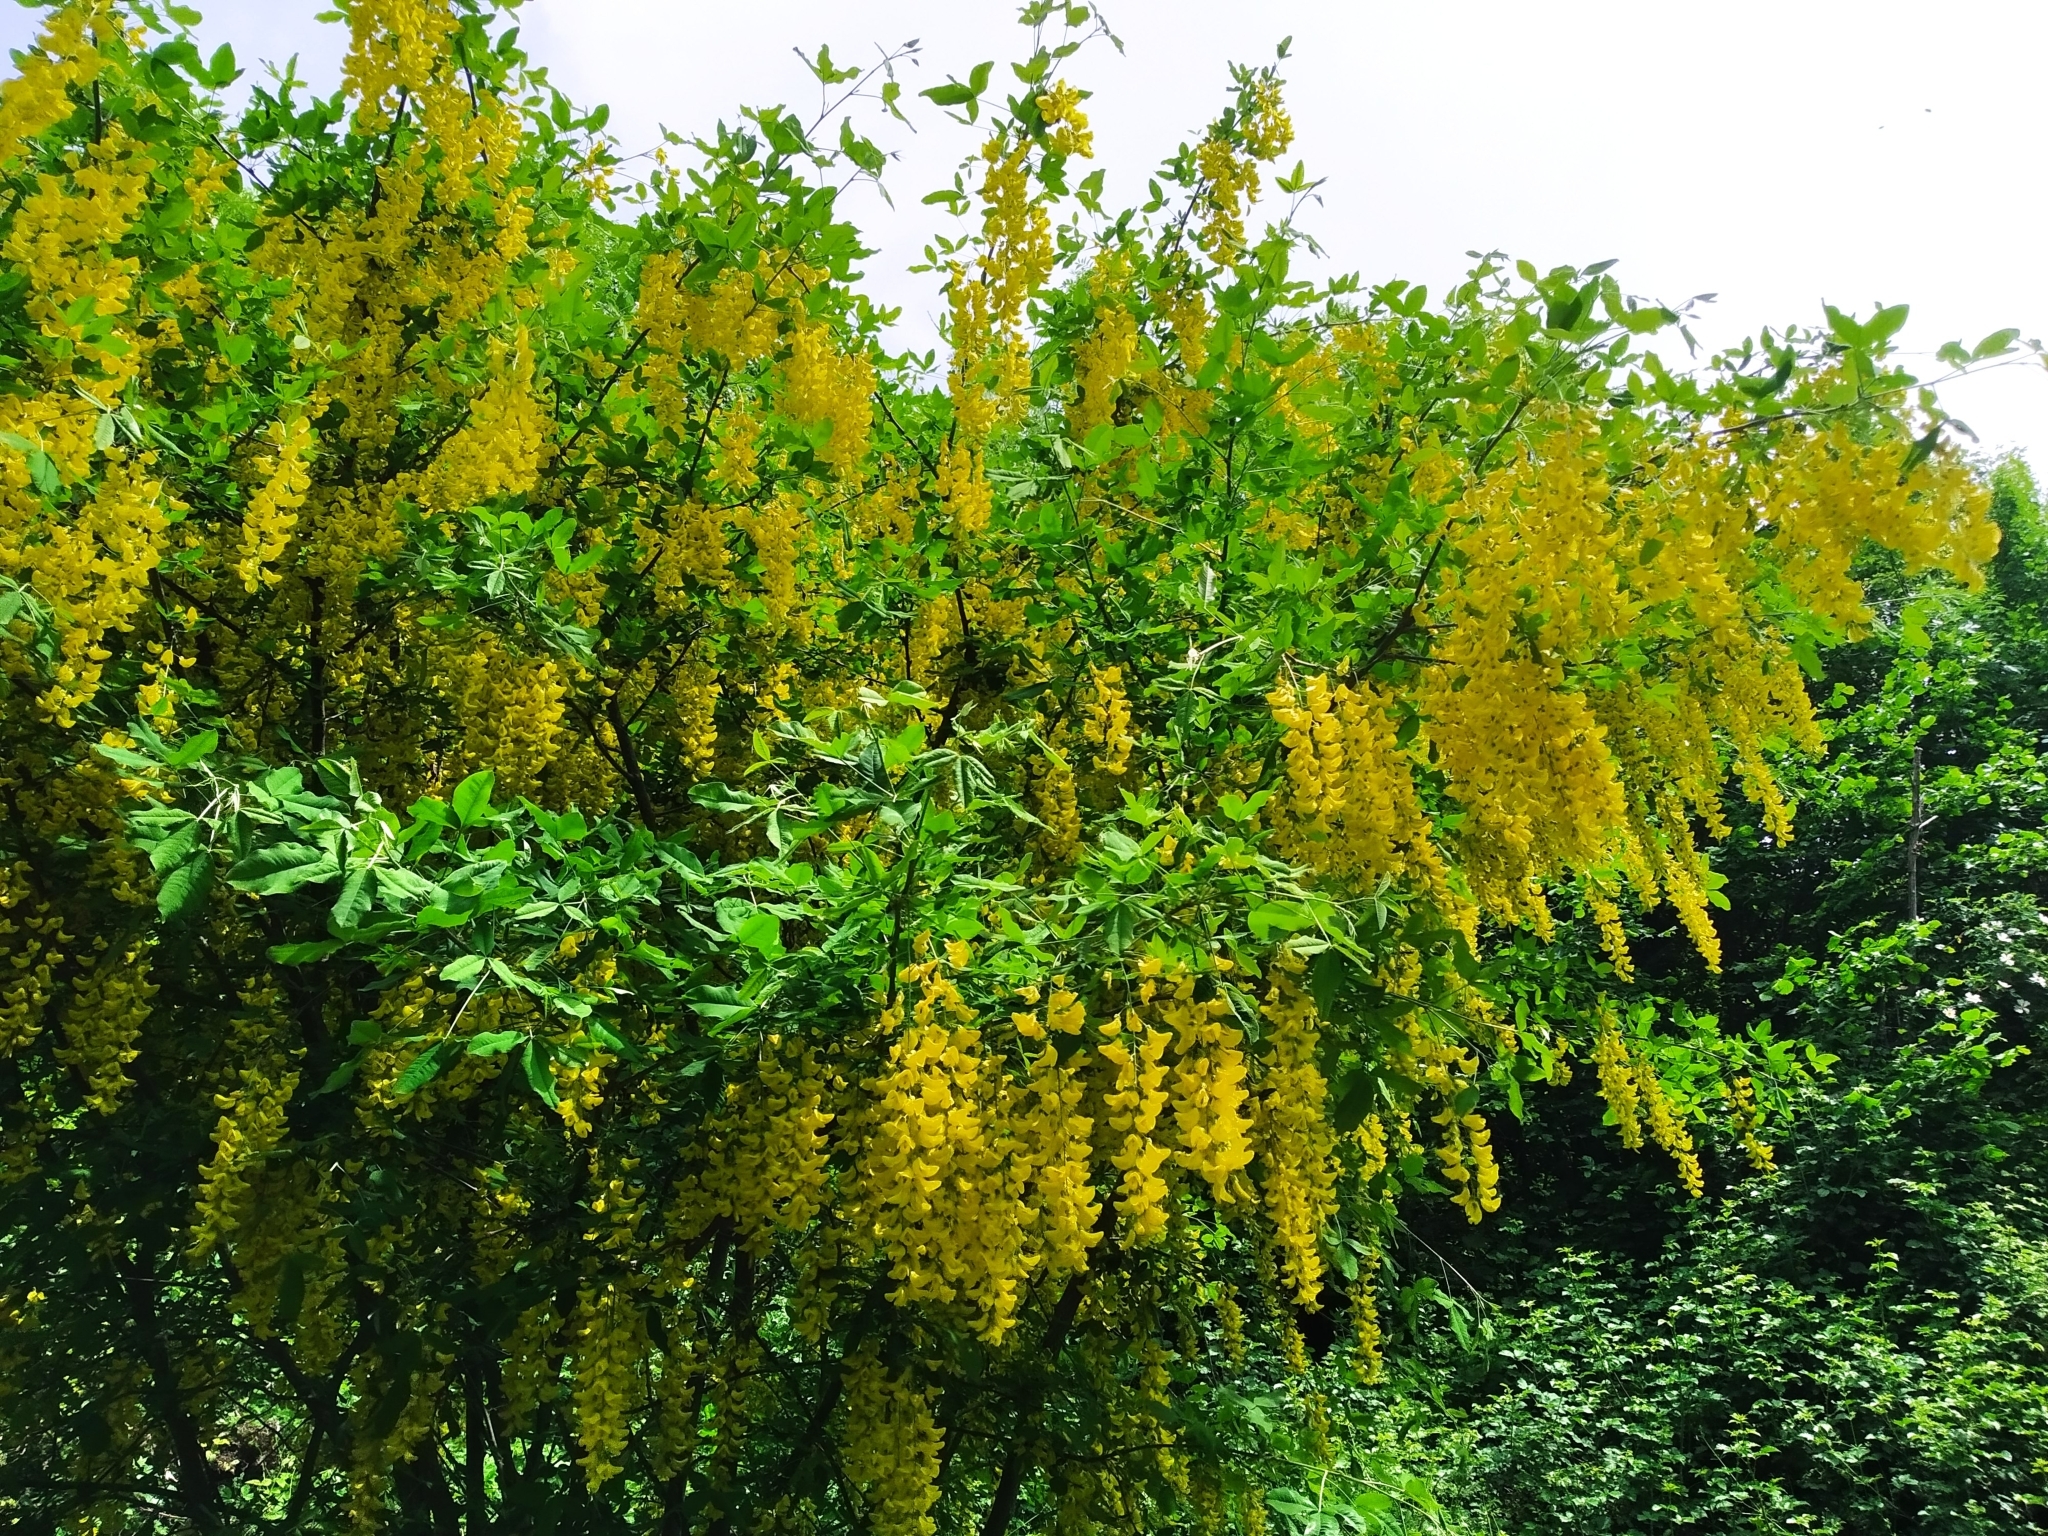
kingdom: Plantae
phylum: Tracheophyta
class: Magnoliopsida
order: Fabales
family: Fabaceae
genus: Laburnum
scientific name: Laburnum anagyroides
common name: Laburnum
